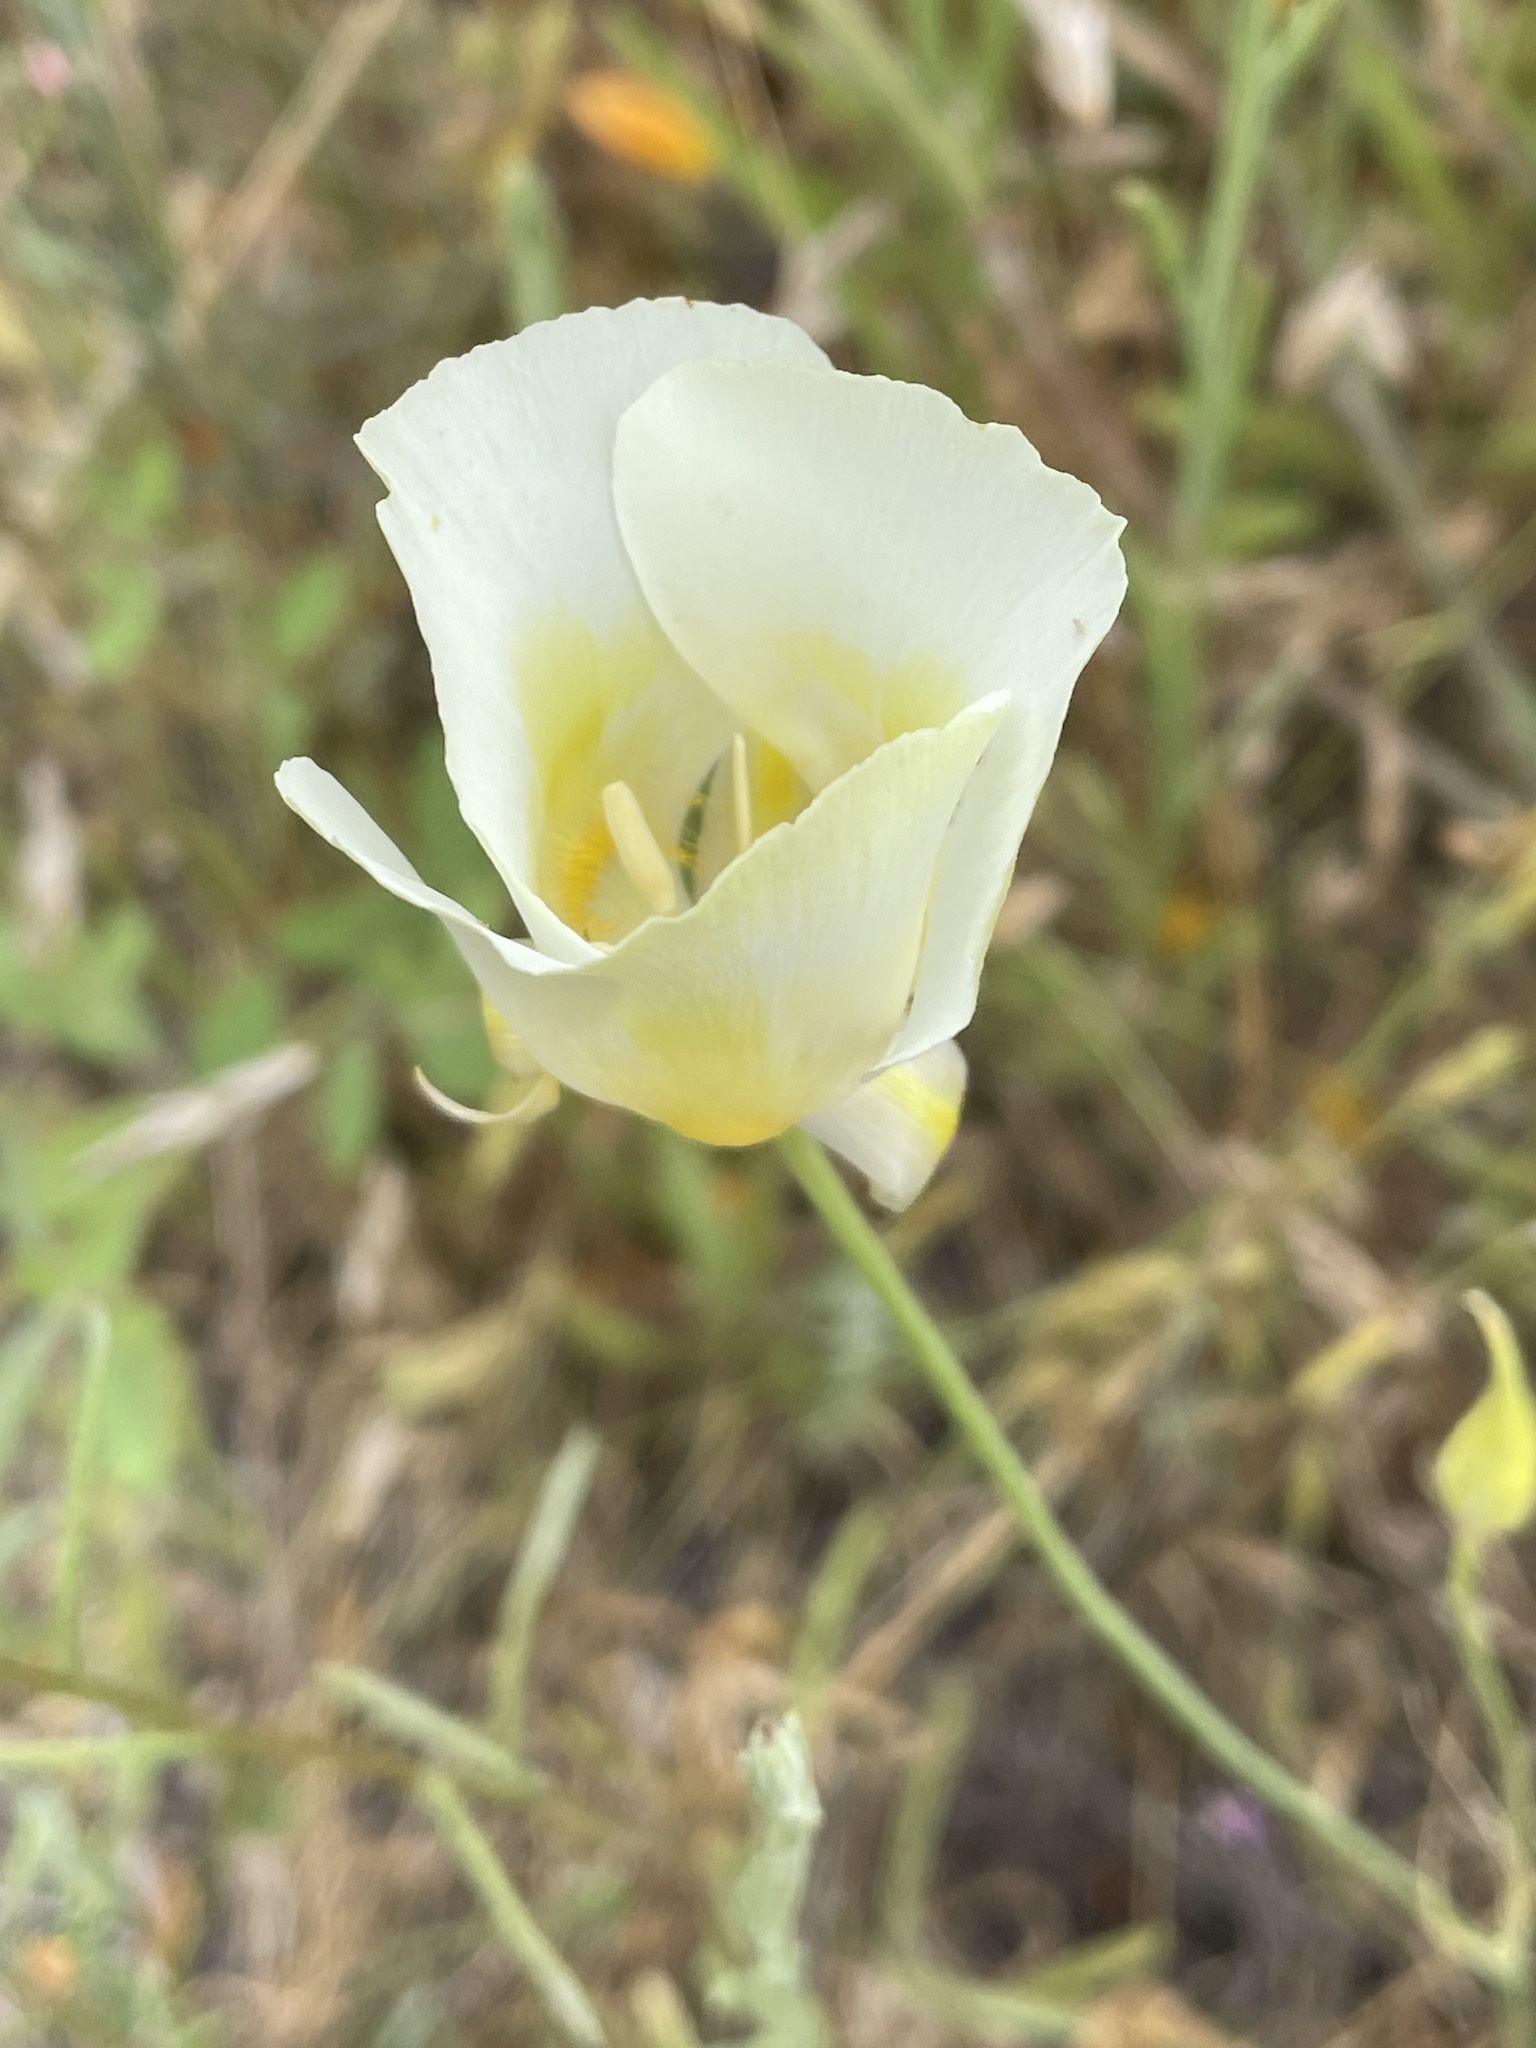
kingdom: Plantae
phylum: Tracheophyta
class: Liliopsida
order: Liliales
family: Liliaceae
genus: Calochortus
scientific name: Calochortus argillosus
